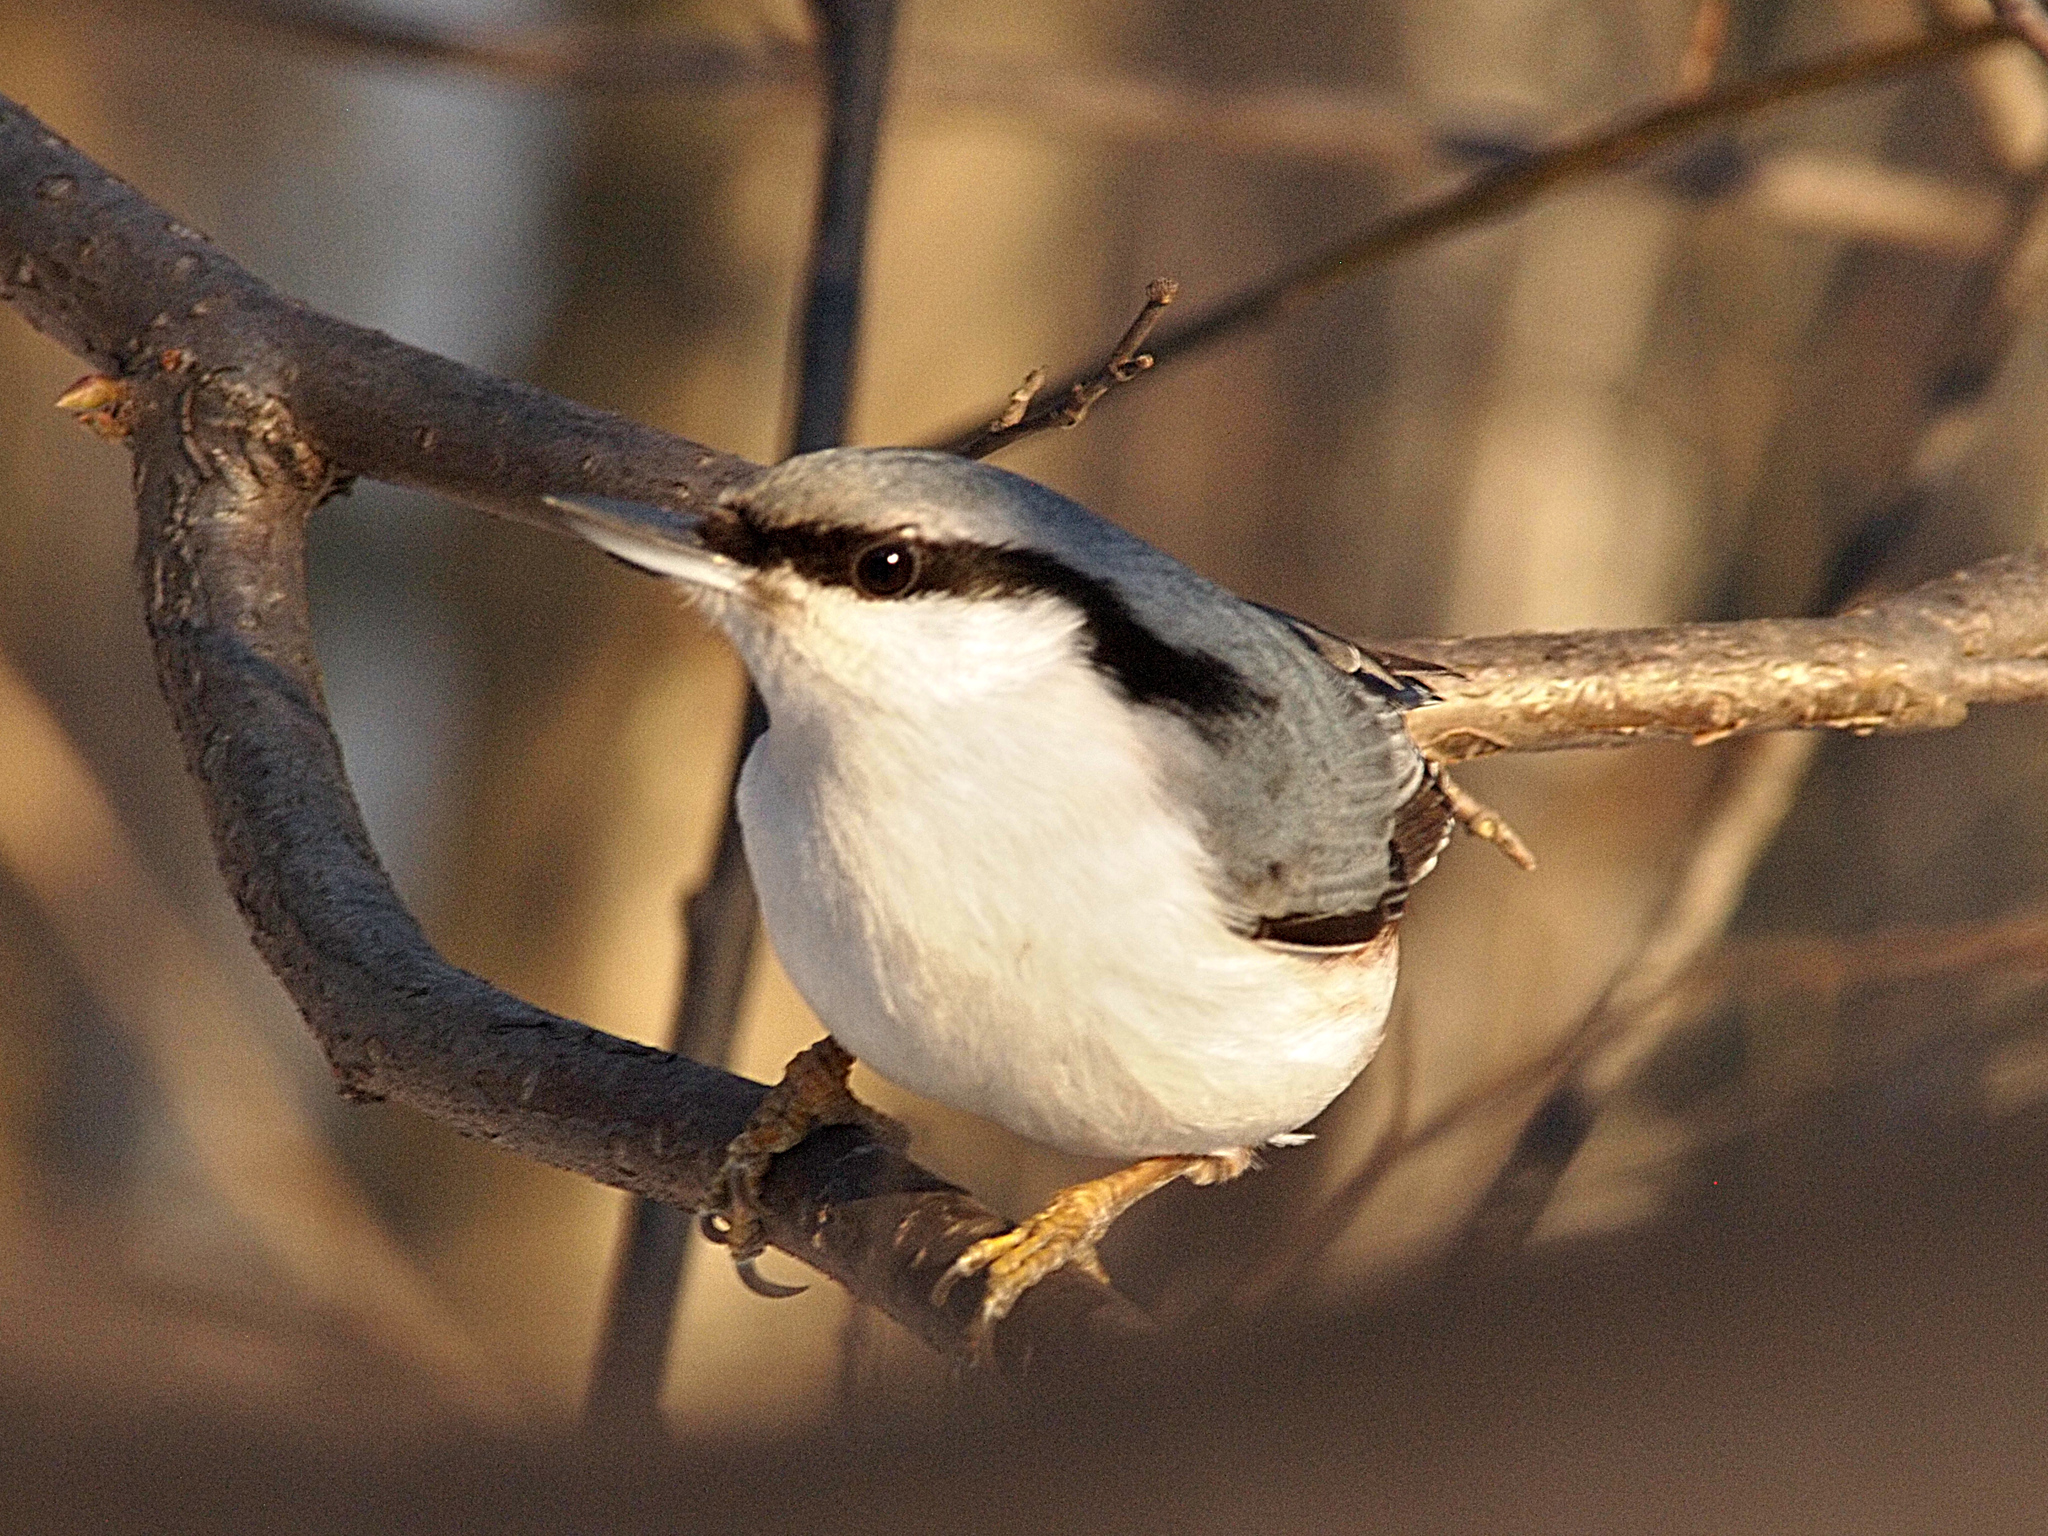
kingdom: Animalia
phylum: Chordata
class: Aves
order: Passeriformes
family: Sittidae
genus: Sitta
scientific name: Sitta europaea
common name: Eurasian nuthatch
